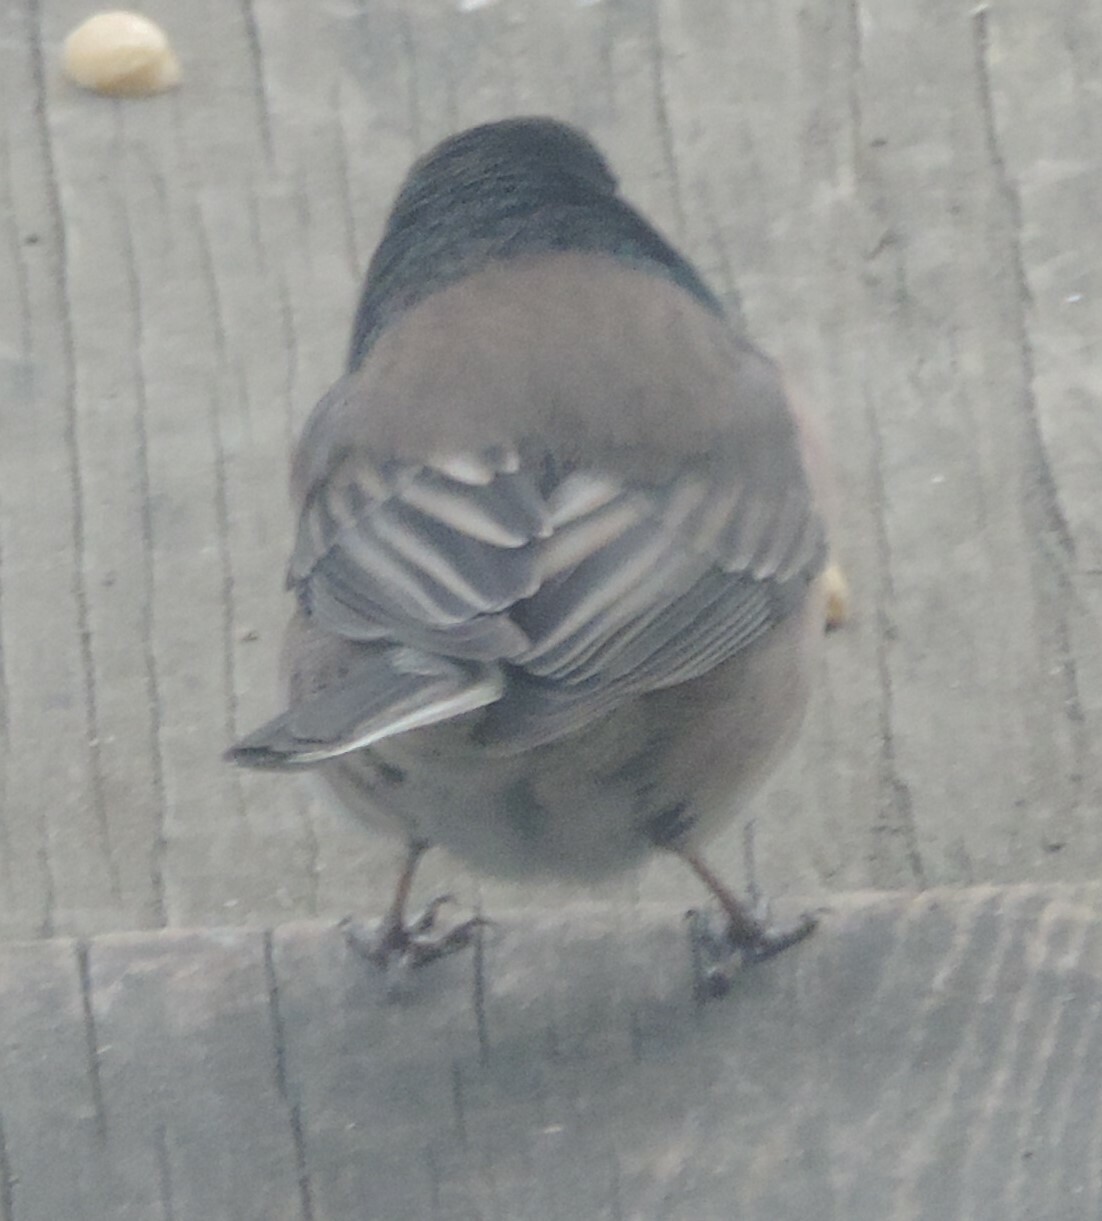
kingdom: Animalia
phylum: Chordata
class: Aves
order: Passeriformes
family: Passerellidae
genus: Junco
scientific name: Junco hyemalis
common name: Dark-eyed junco
